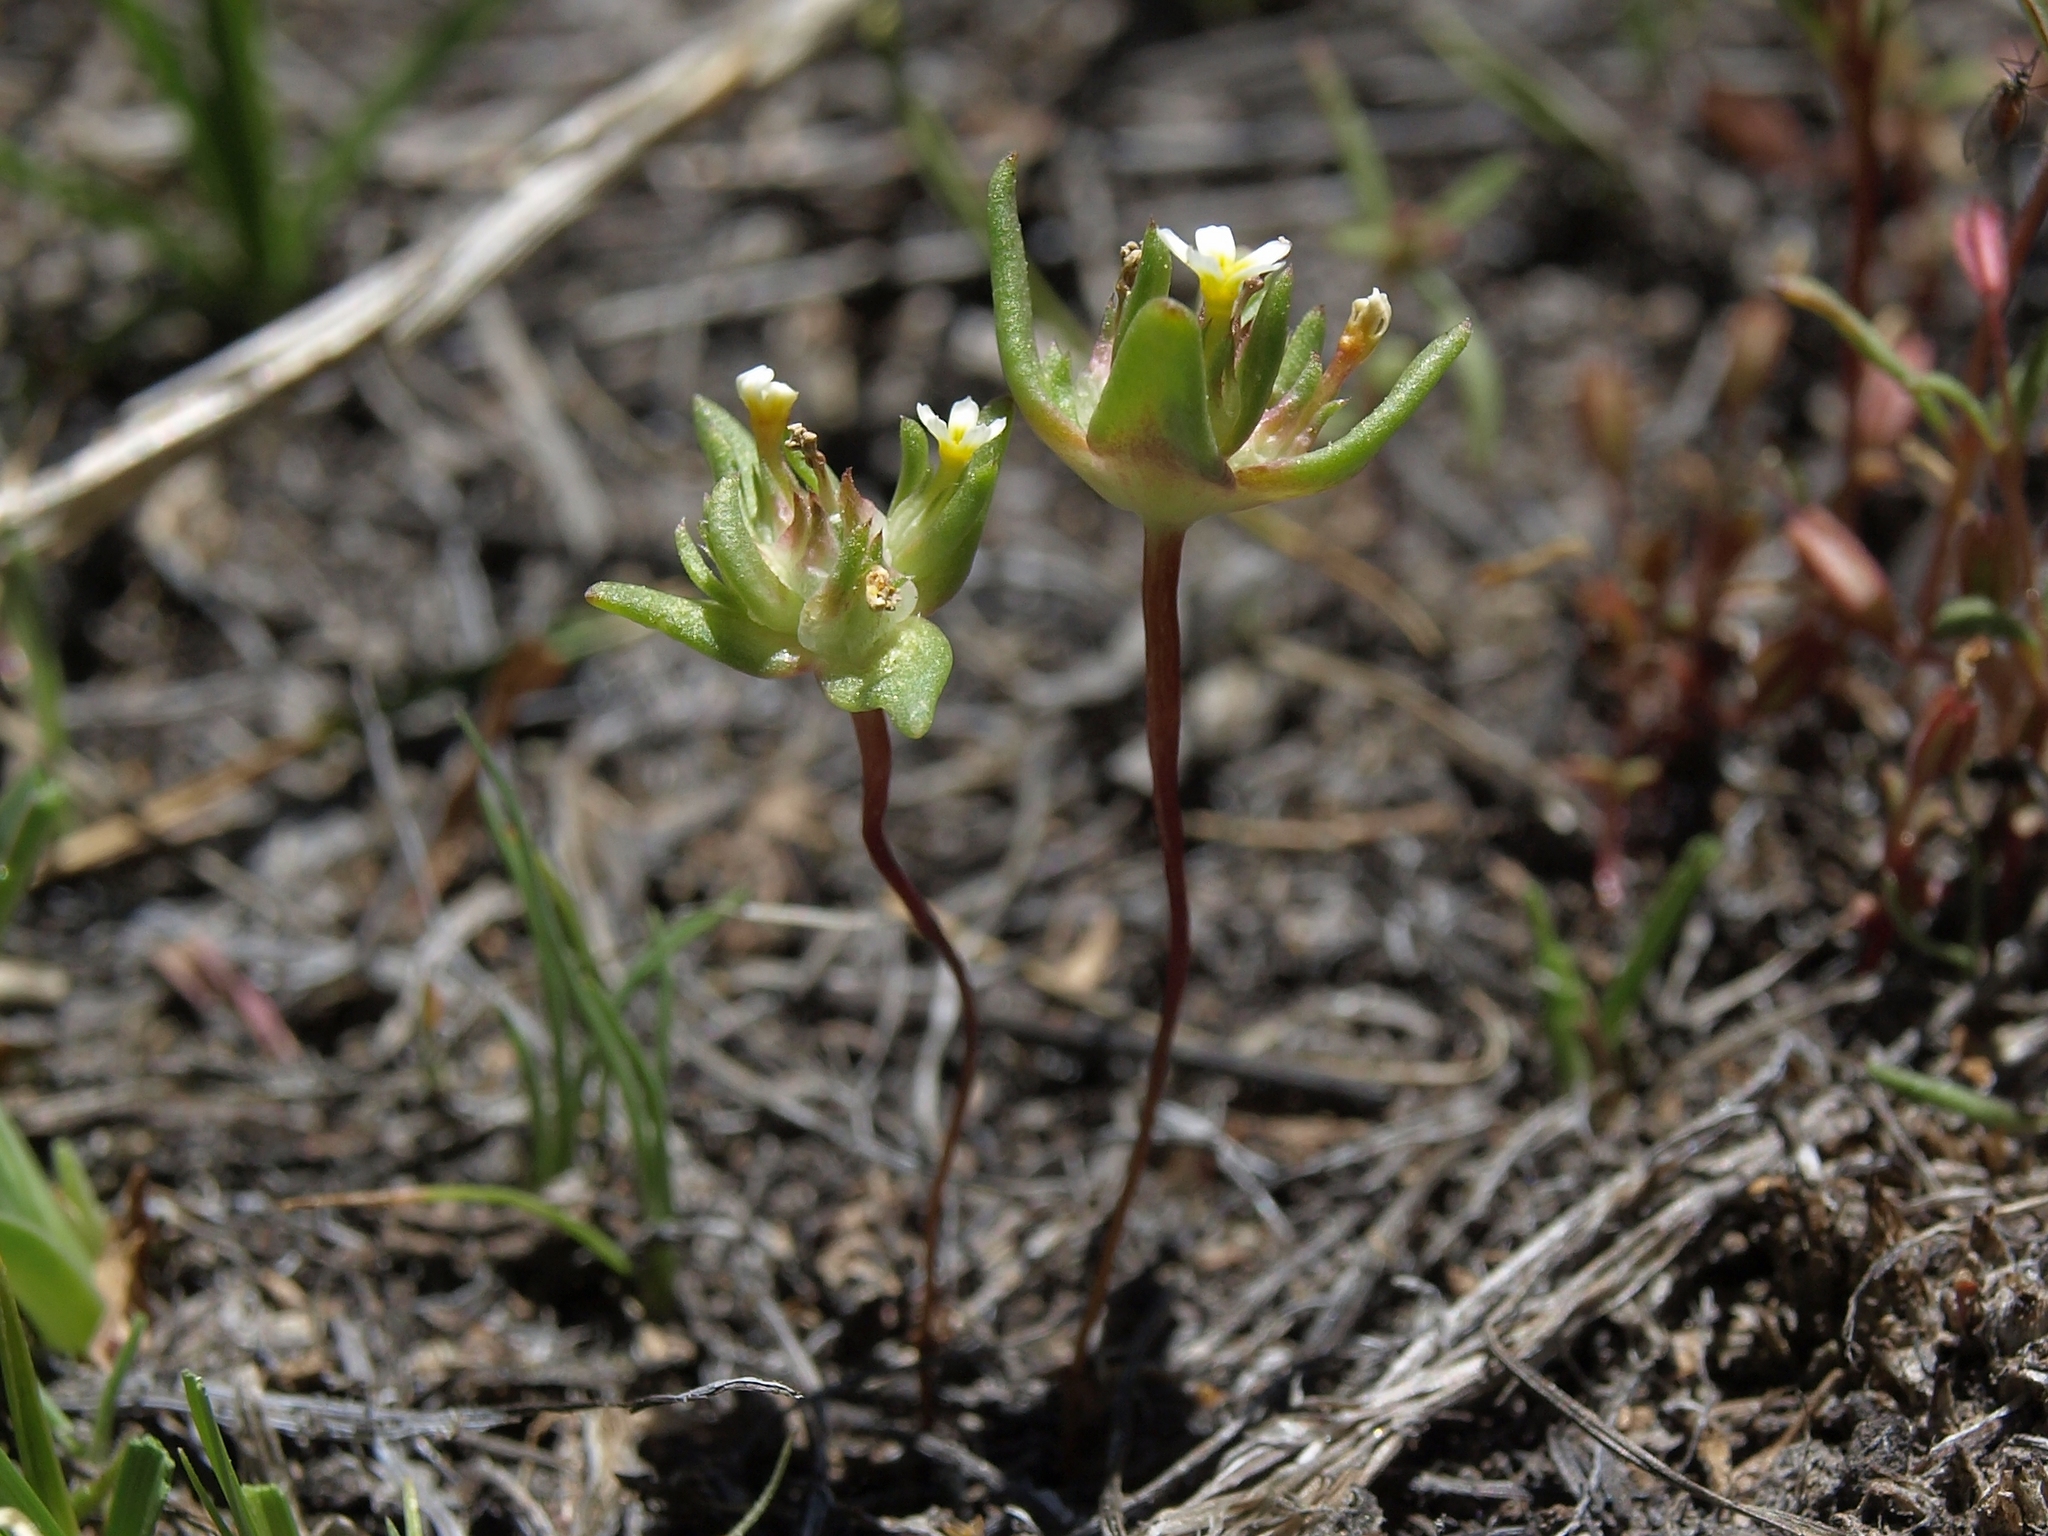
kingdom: Plantae
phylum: Tracheophyta
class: Magnoliopsida
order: Ericales
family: Polemoniaceae
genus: Gymnosteris
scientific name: Gymnosteris parvula
